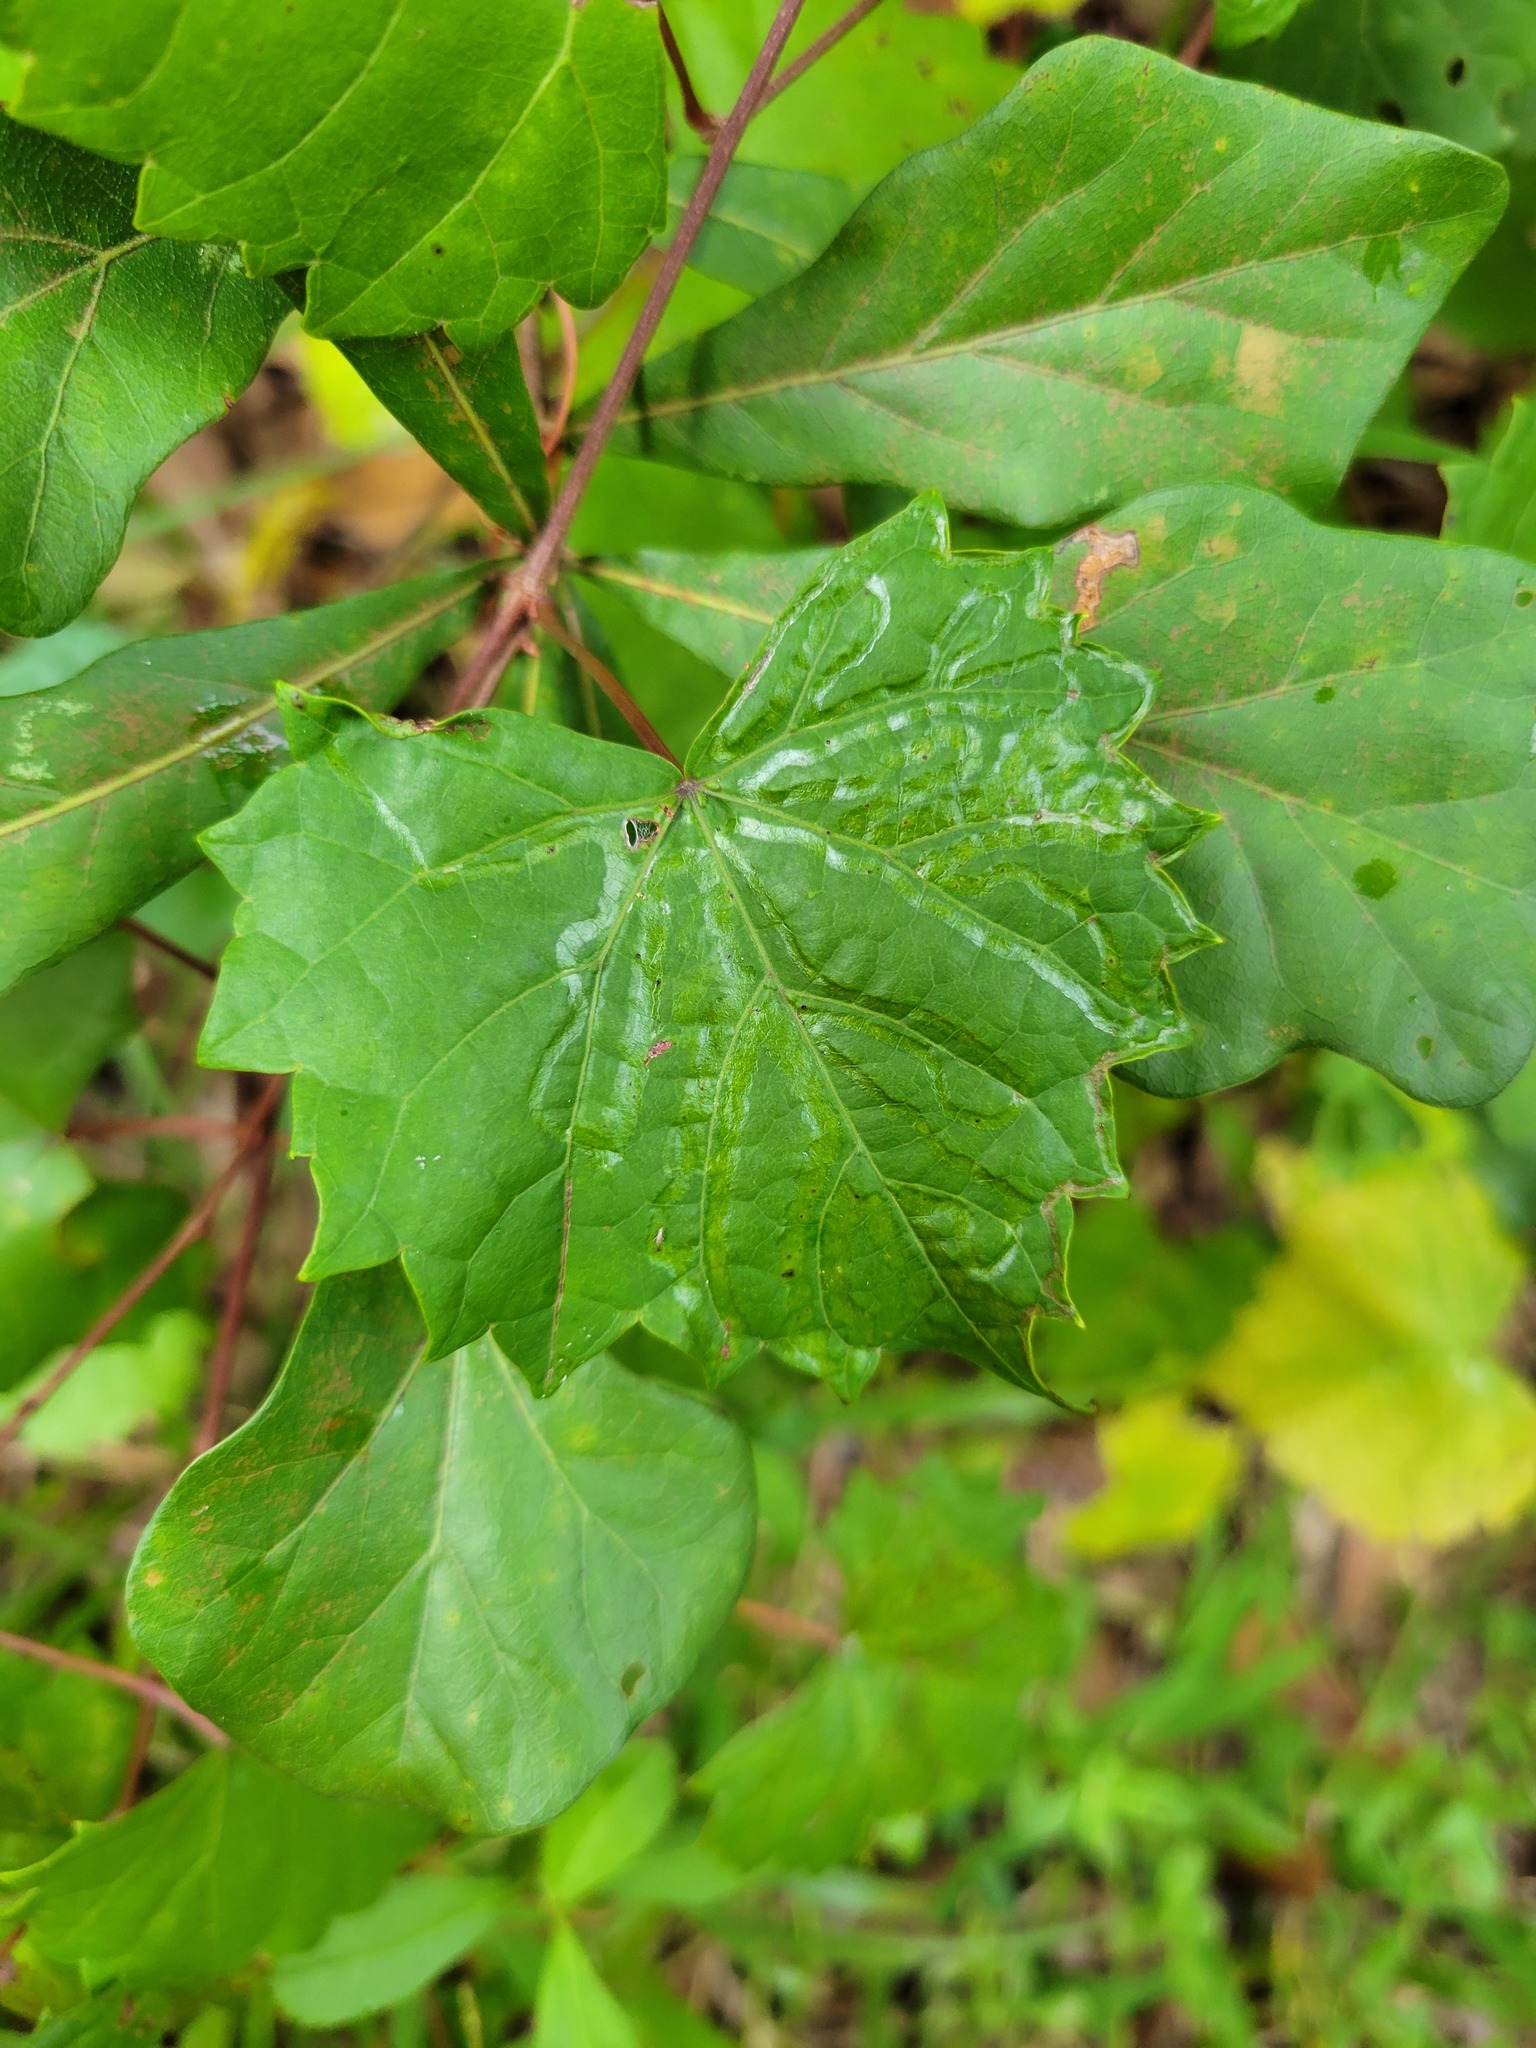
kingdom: Animalia
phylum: Arthropoda
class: Insecta
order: Lepidoptera
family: Gracillariidae
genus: Phyllocnistis
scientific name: Phyllocnistis vitegenella
